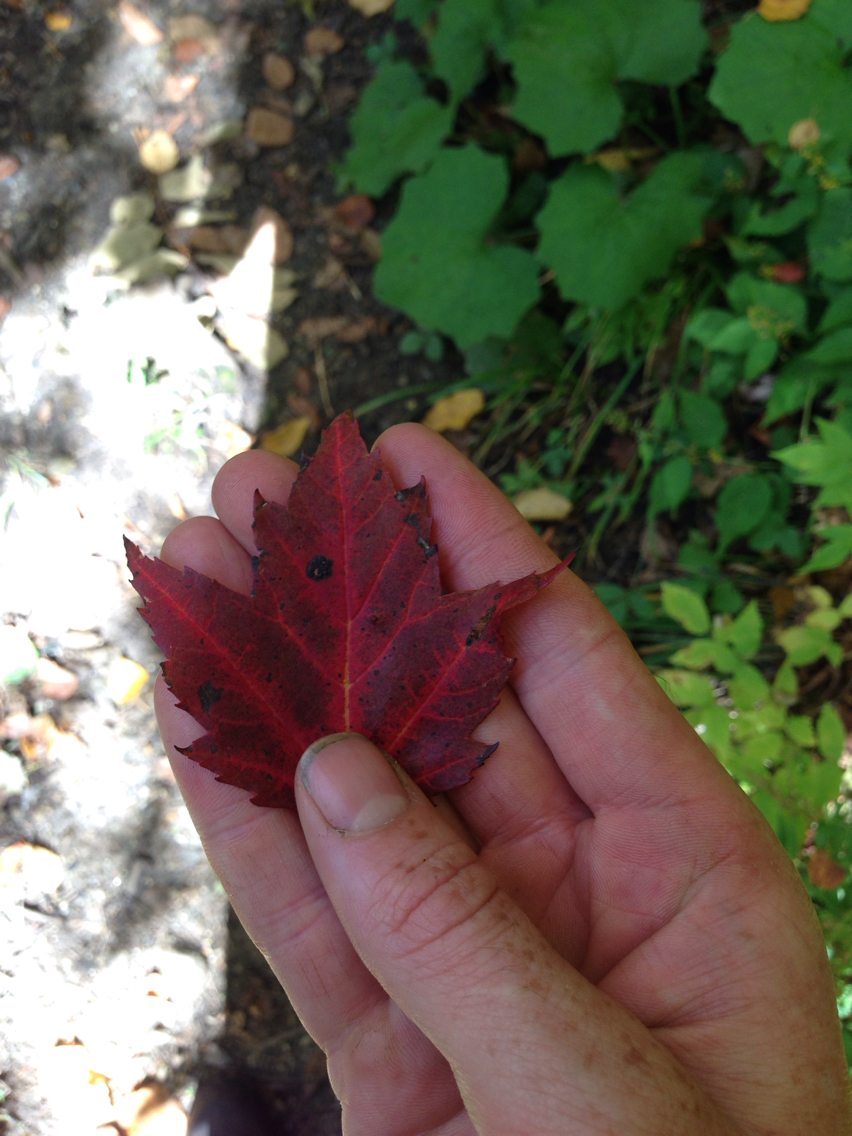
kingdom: Plantae
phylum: Tracheophyta
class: Magnoliopsida
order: Sapindales
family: Sapindaceae
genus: Acer
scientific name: Acer rubrum
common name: Red maple
